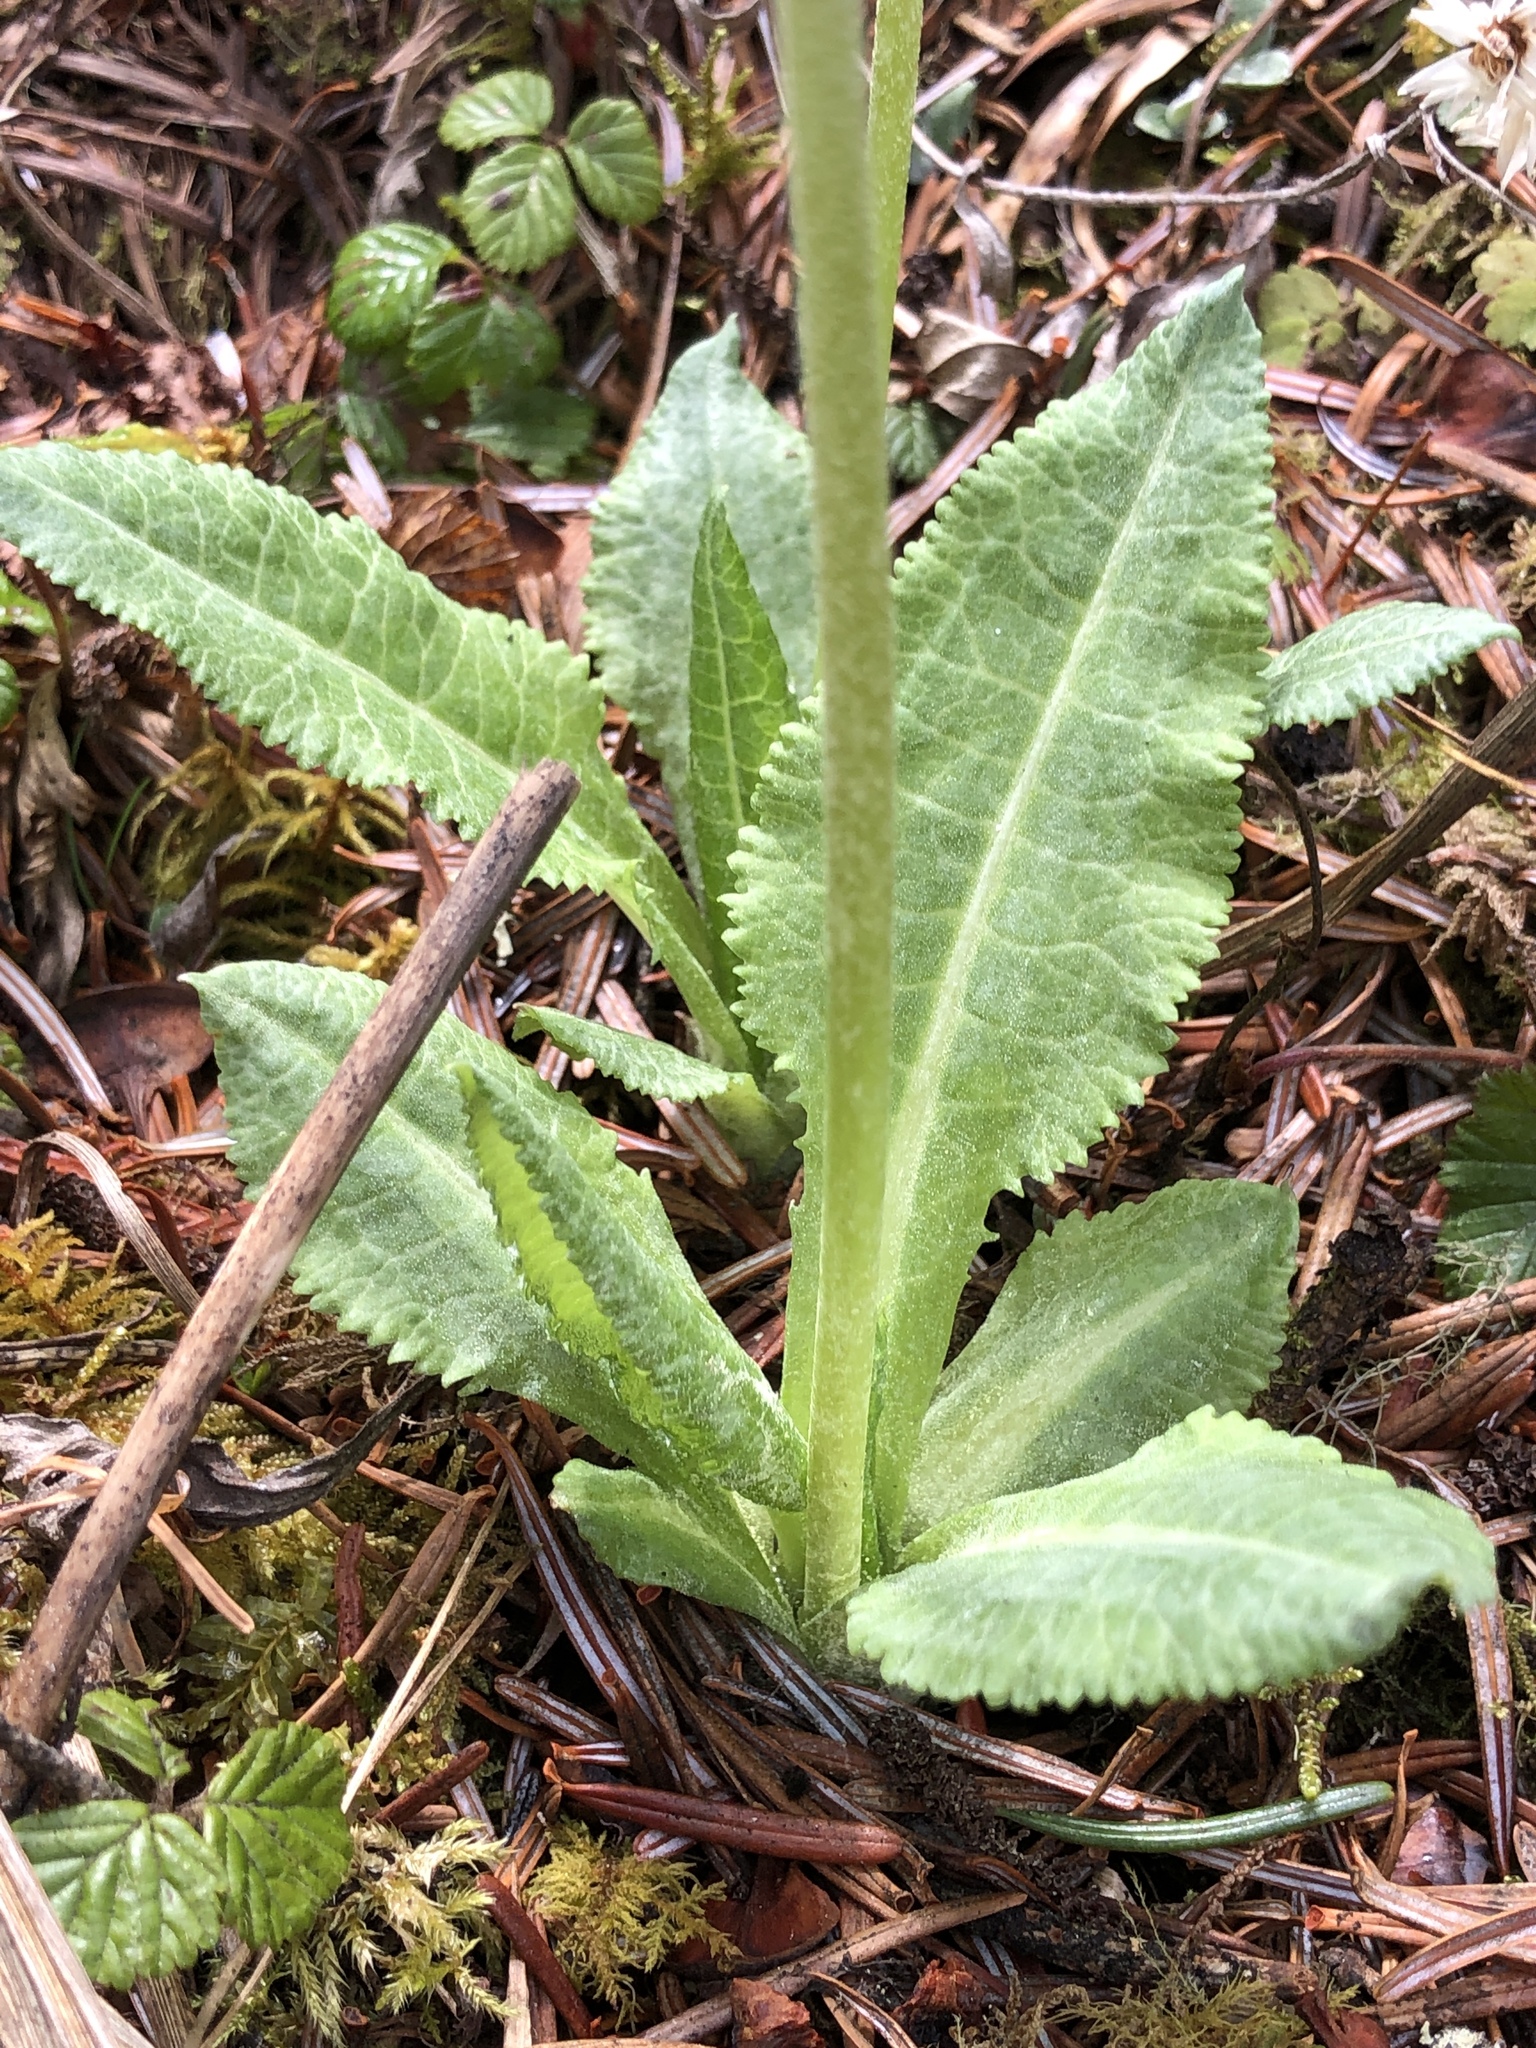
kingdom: Plantae
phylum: Tracheophyta
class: Magnoliopsida
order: Ericales
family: Primulaceae
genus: Primula
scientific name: Primula griffithii
